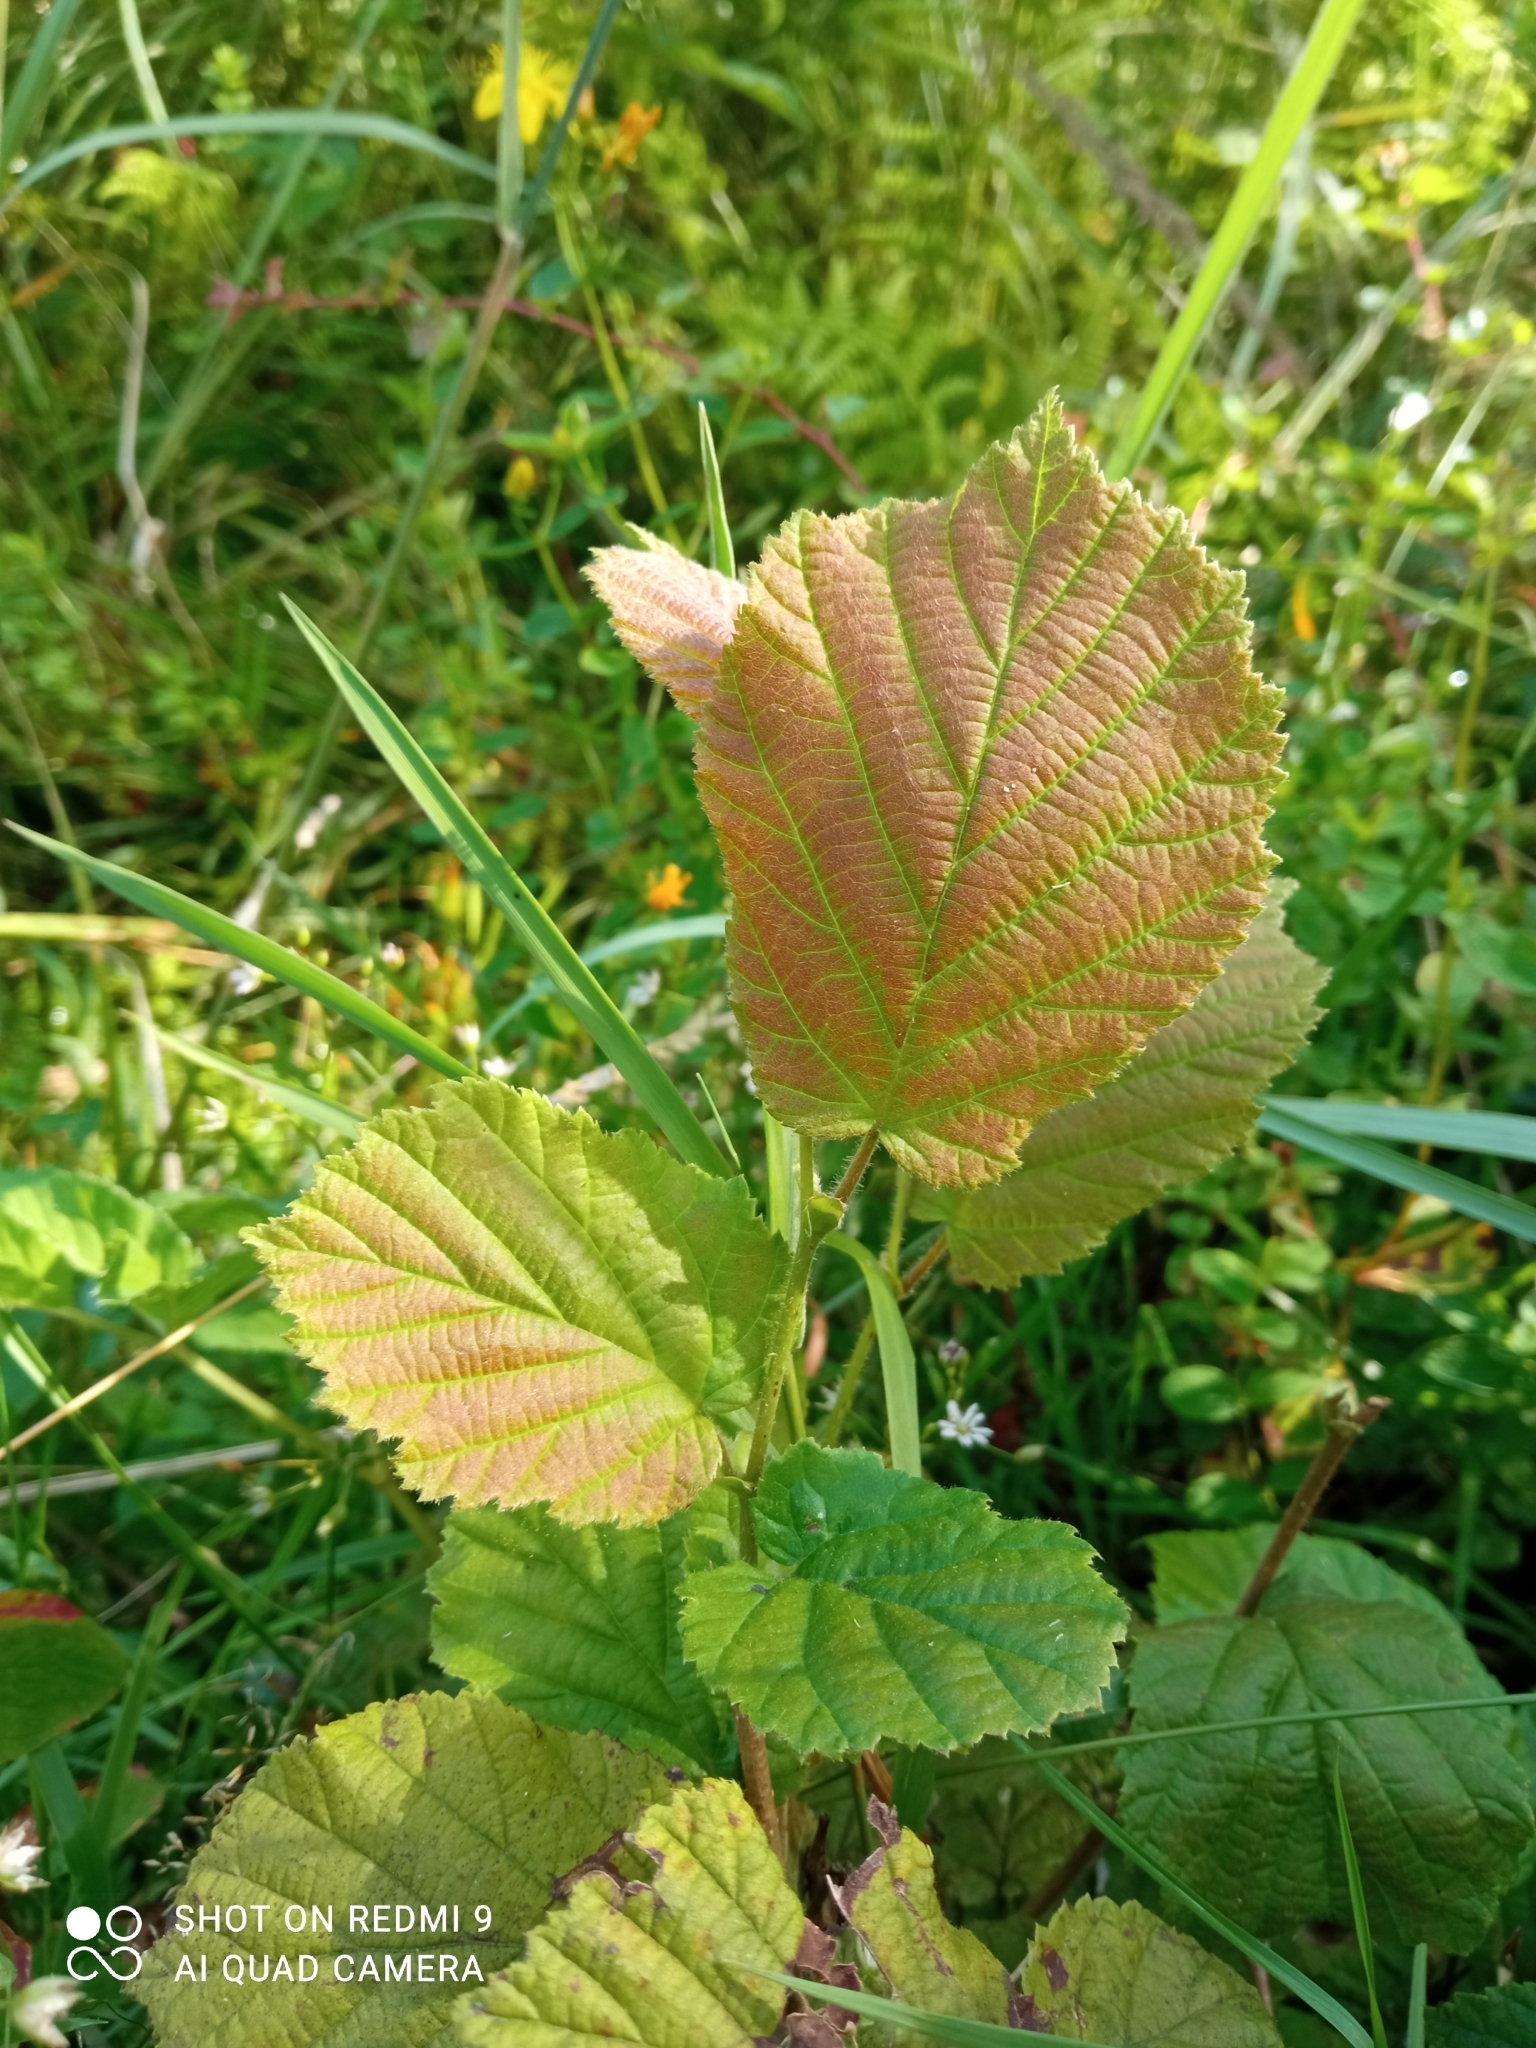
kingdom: Plantae
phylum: Tracheophyta
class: Magnoliopsida
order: Fagales
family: Betulaceae
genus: Corylus
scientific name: Corylus avellana
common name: European hazel
